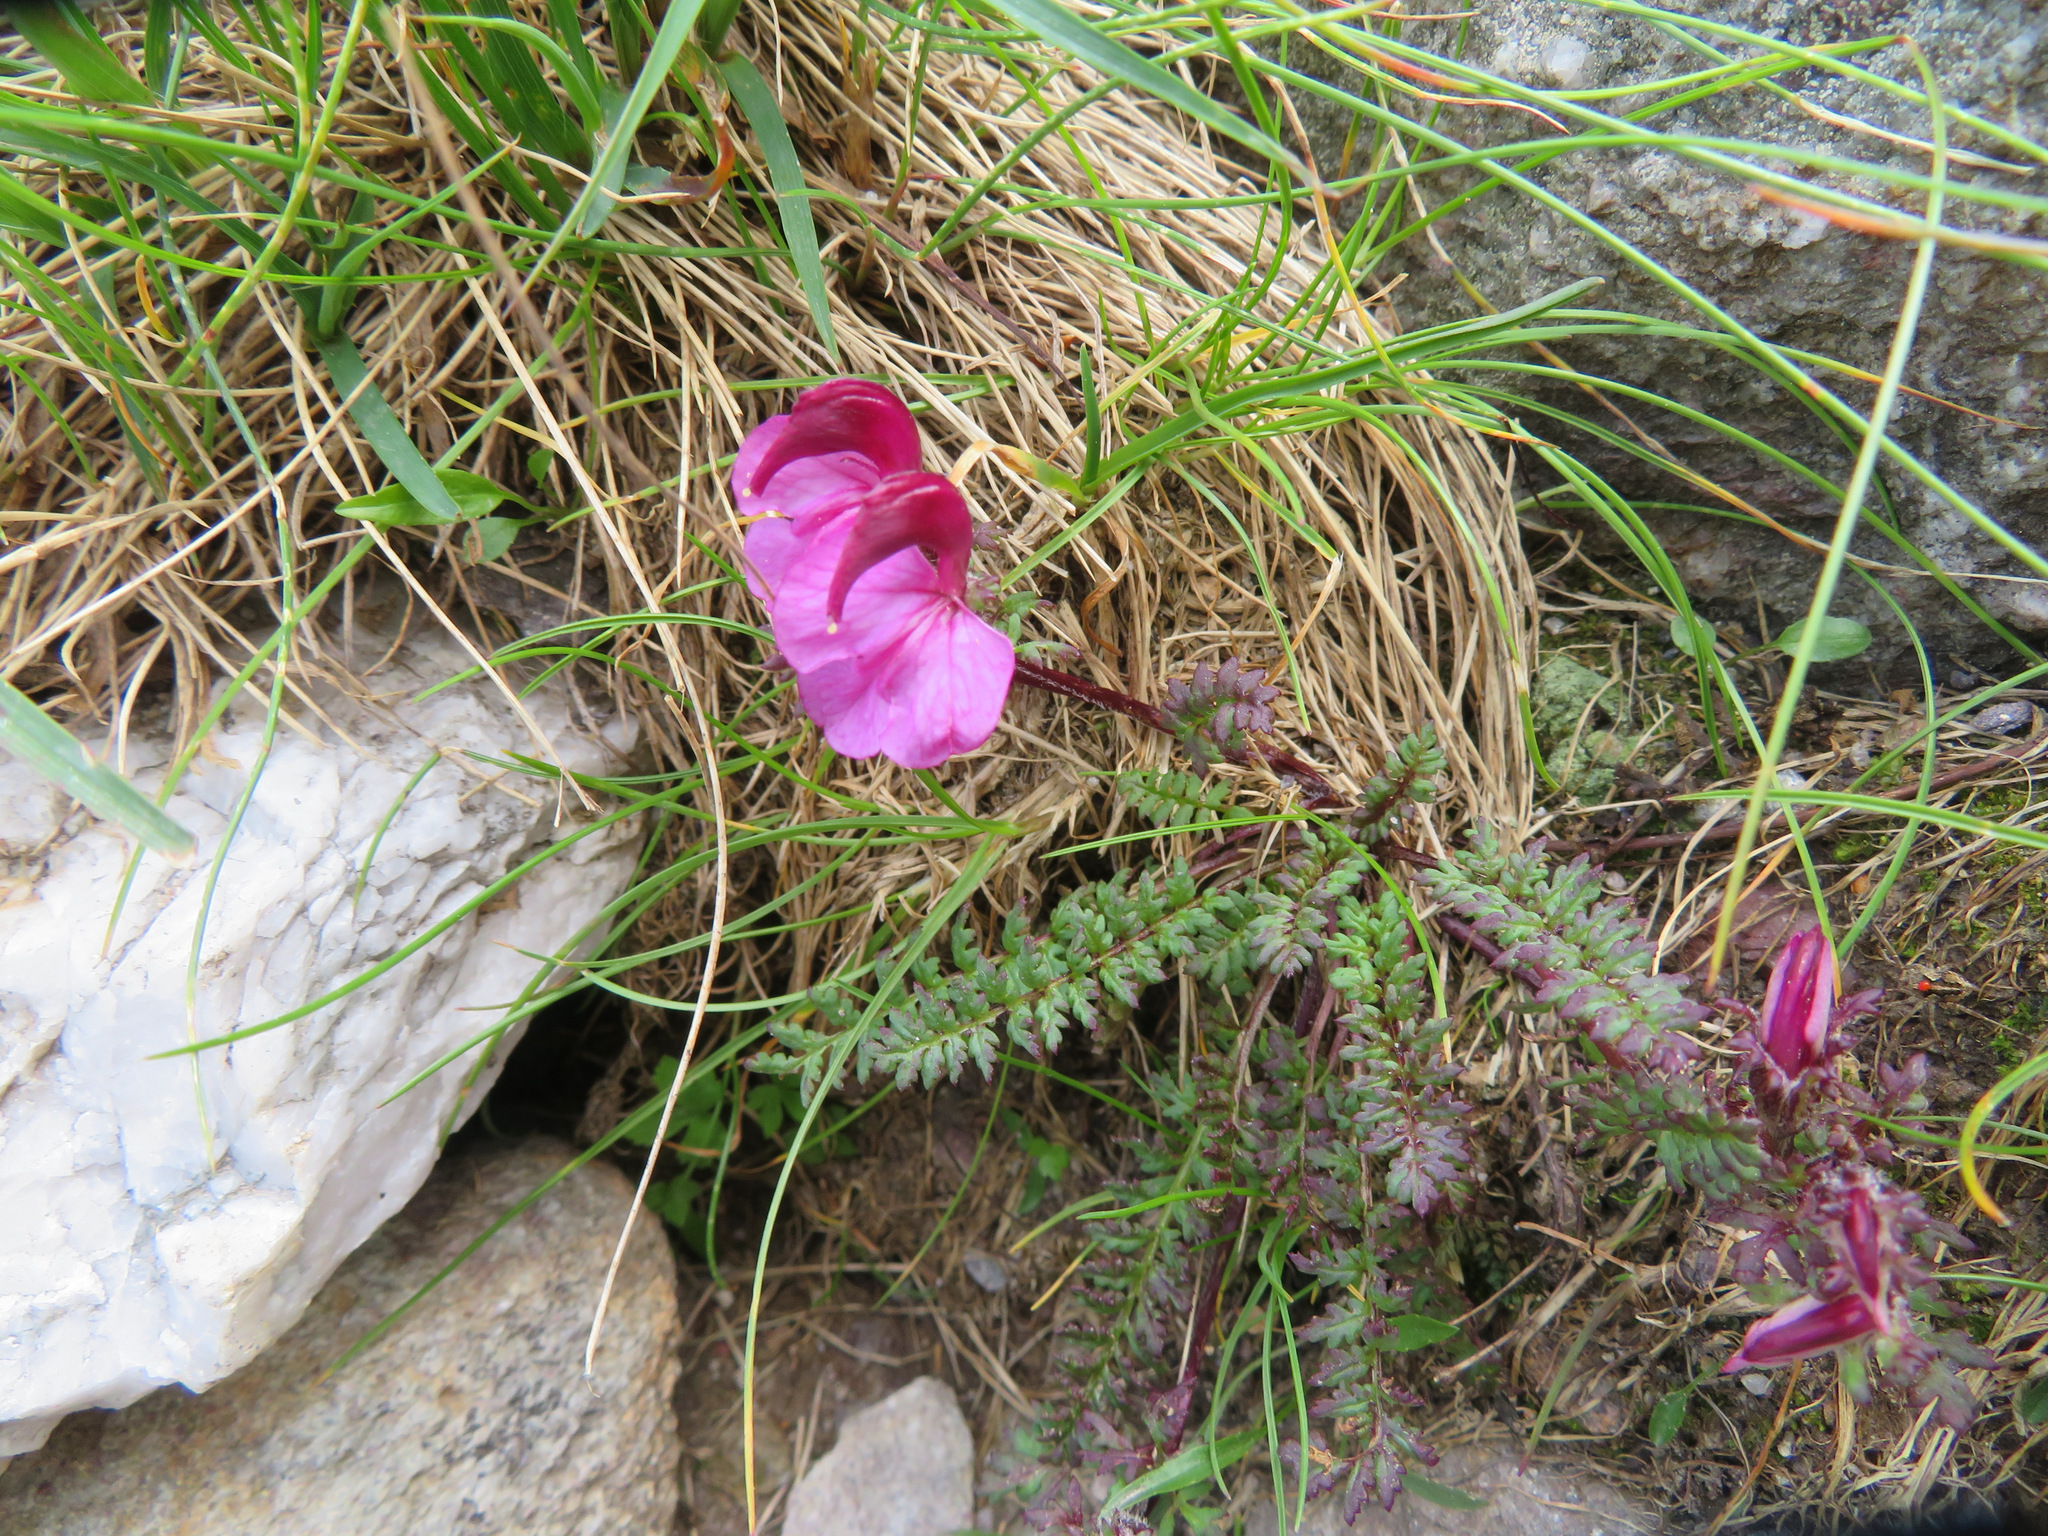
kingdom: Plantae
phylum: Tracheophyta
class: Magnoliopsida
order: Lamiales
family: Orobanchaceae
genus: Pedicularis
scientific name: Pedicularis kerneri
